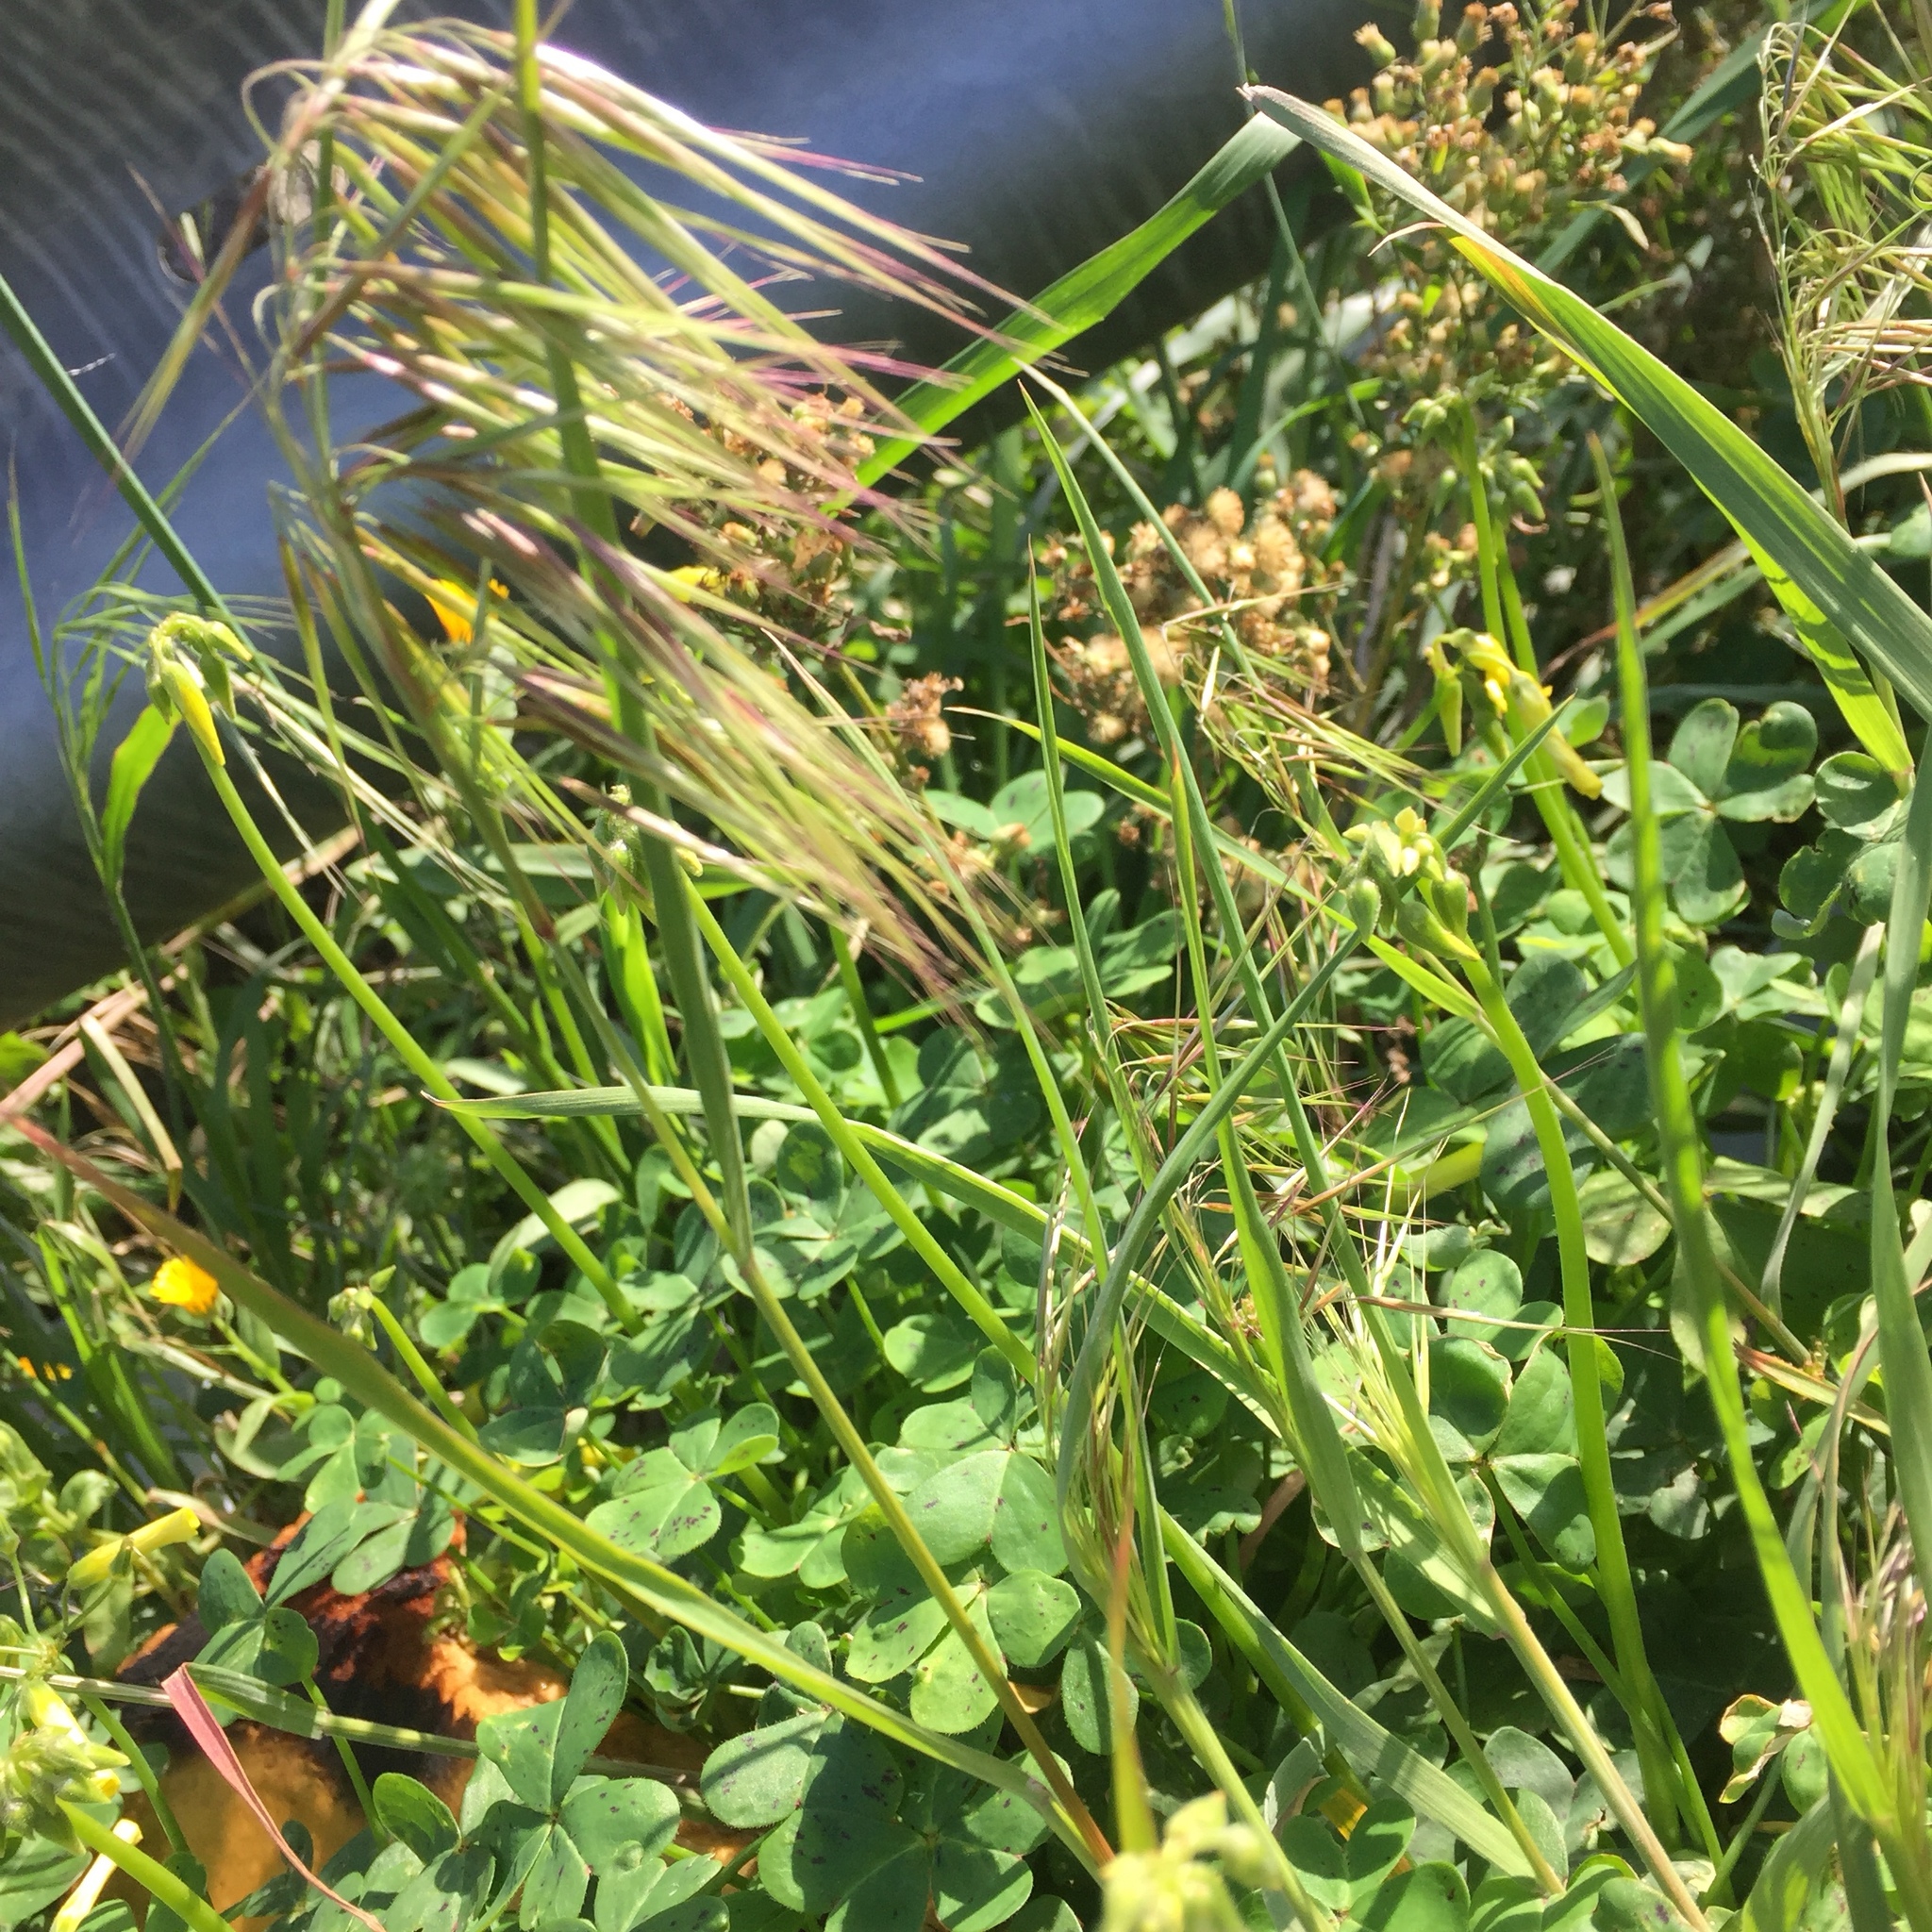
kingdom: Plantae
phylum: Tracheophyta
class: Liliopsida
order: Poales
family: Poaceae
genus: Bromus
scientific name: Bromus tectorum
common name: Cheatgrass
